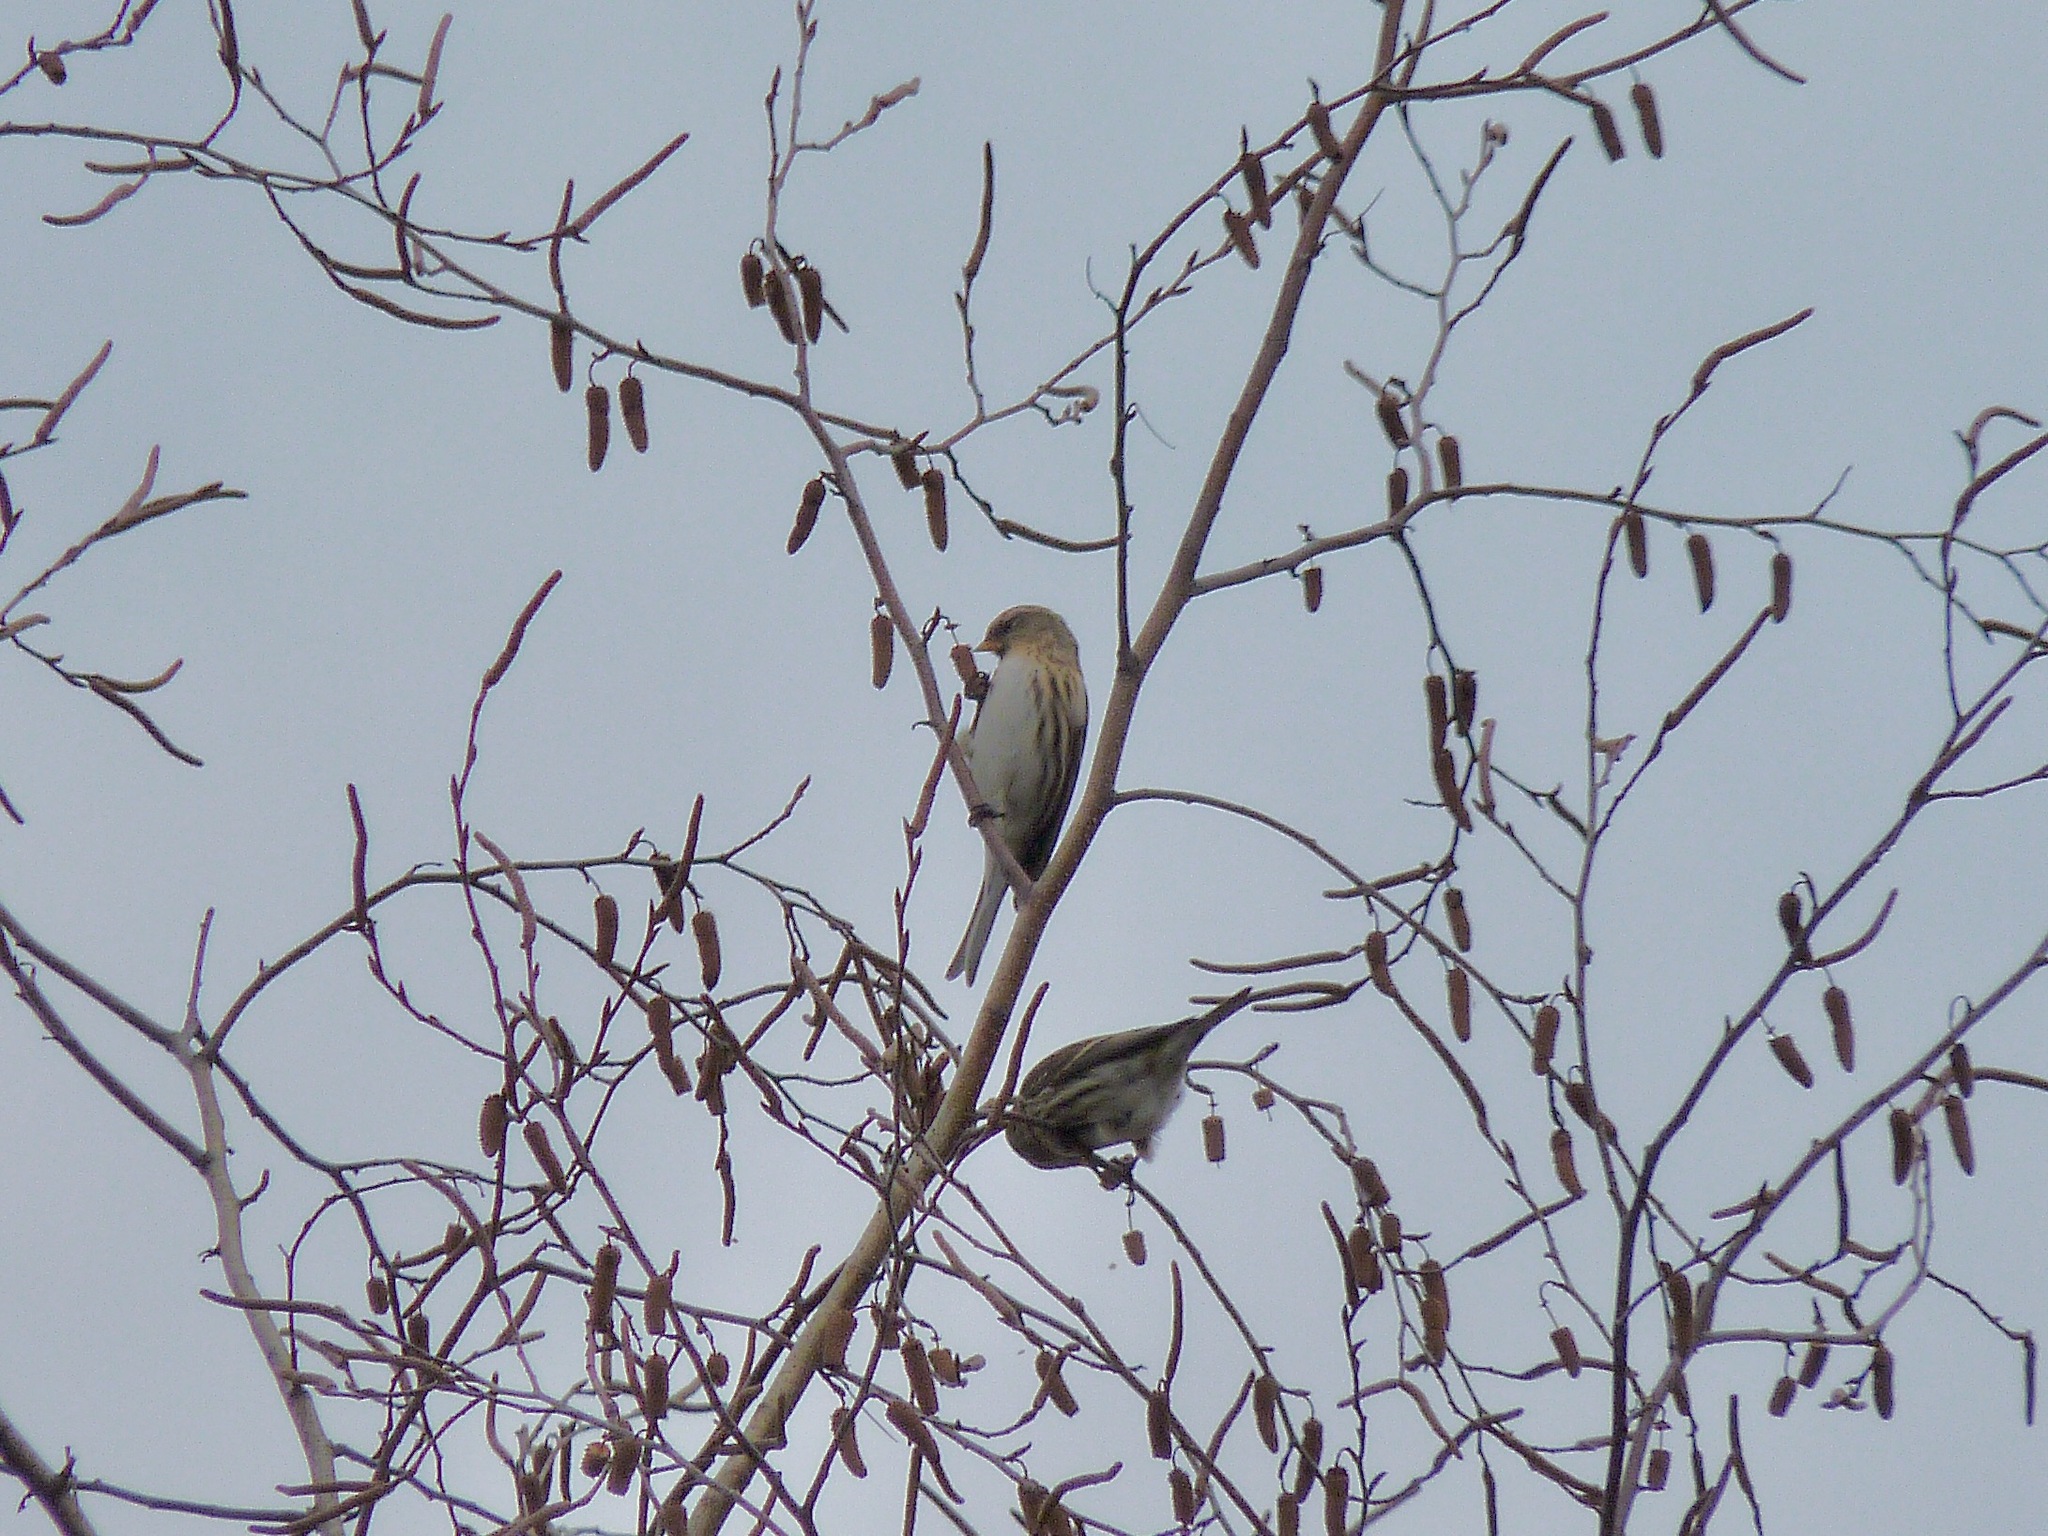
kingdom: Animalia
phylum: Chordata
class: Aves
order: Passeriformes
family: Fringillidae
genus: Acanthis
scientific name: Acanthis flammea
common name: Common redpoll
